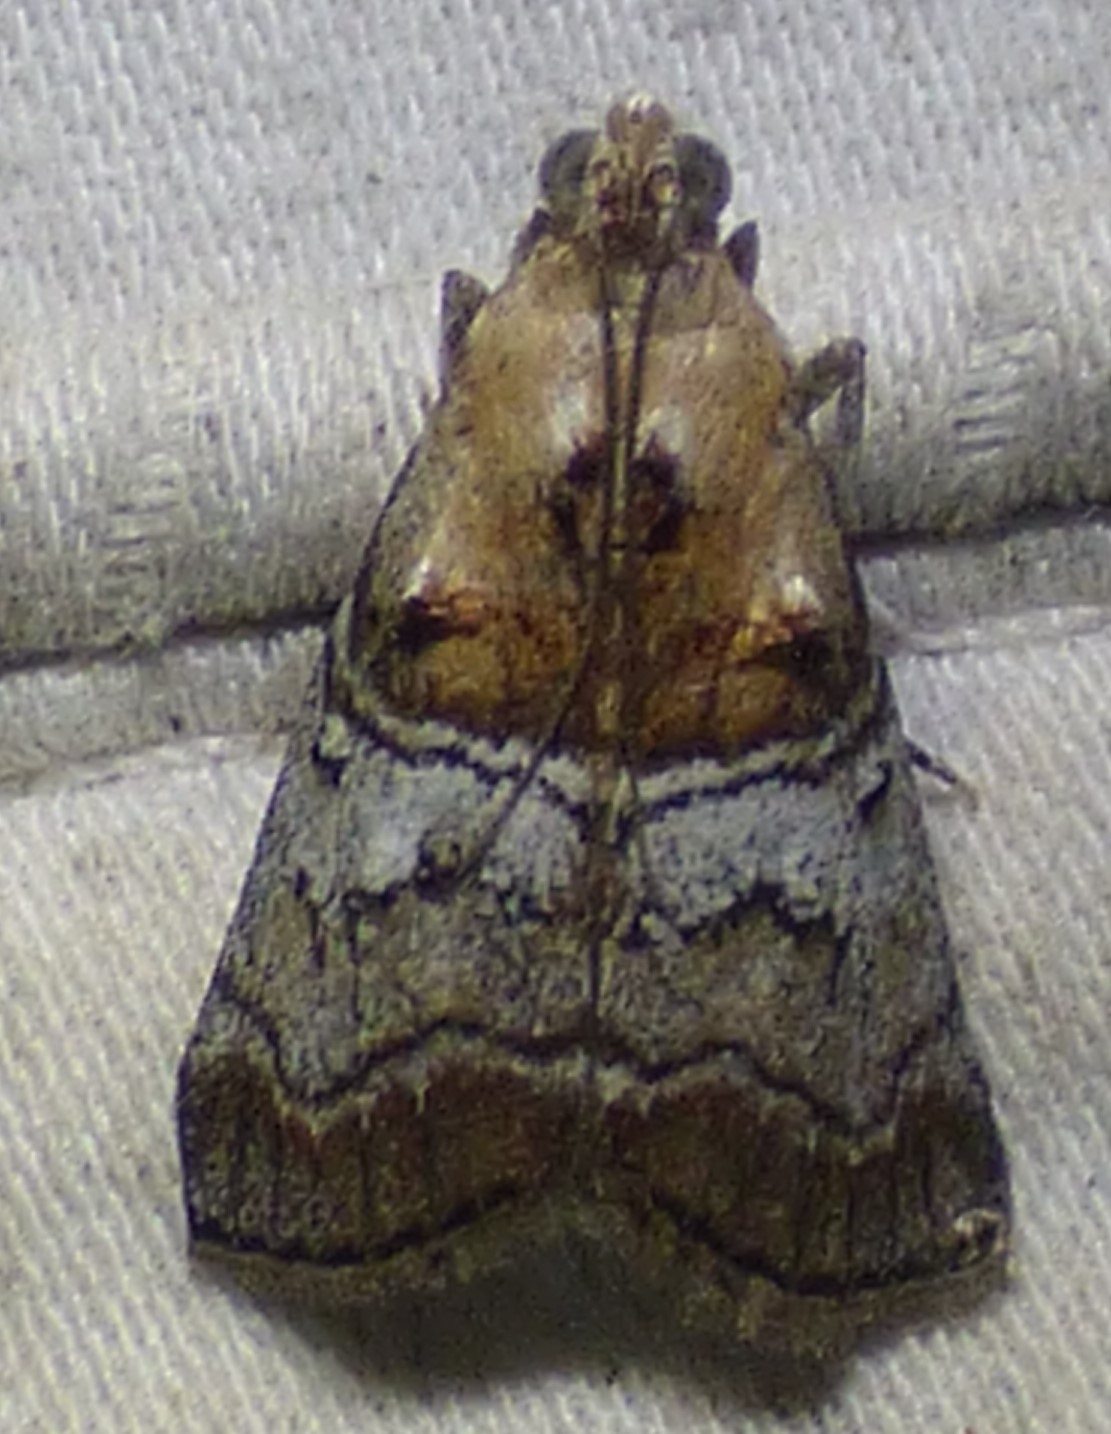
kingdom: Animalia
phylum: Arthropoda
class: Insecta
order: Lepidoptera
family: Pyralidae
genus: Pococera
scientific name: Pococera maritimalis
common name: Gray-banded pococera moth
